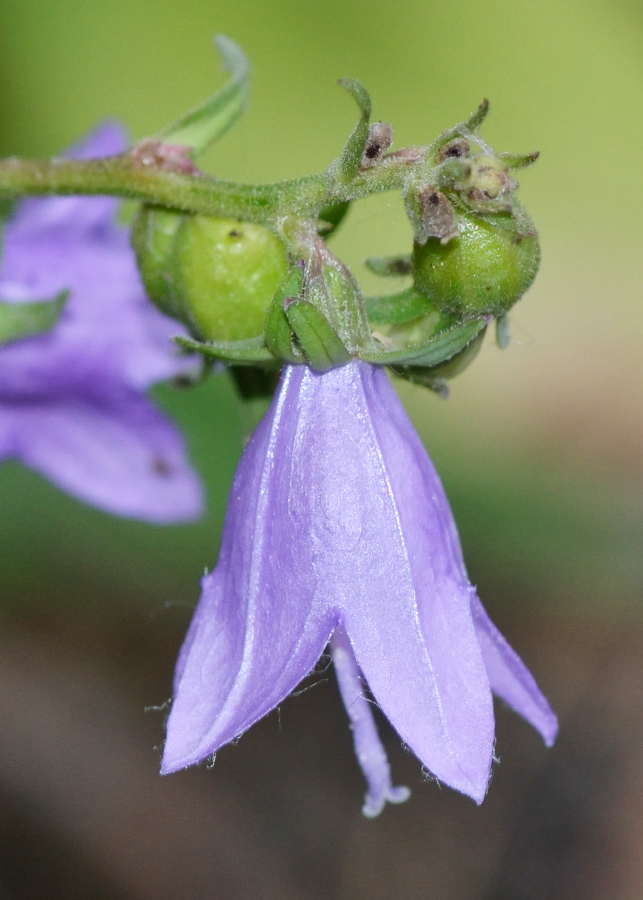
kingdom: Plantae
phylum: Tracheophyta
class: Magnoliopsida
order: Asterales
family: Campanulaceae
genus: Campanula
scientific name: Campanula rapunculoides
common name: Creeping bellflower
